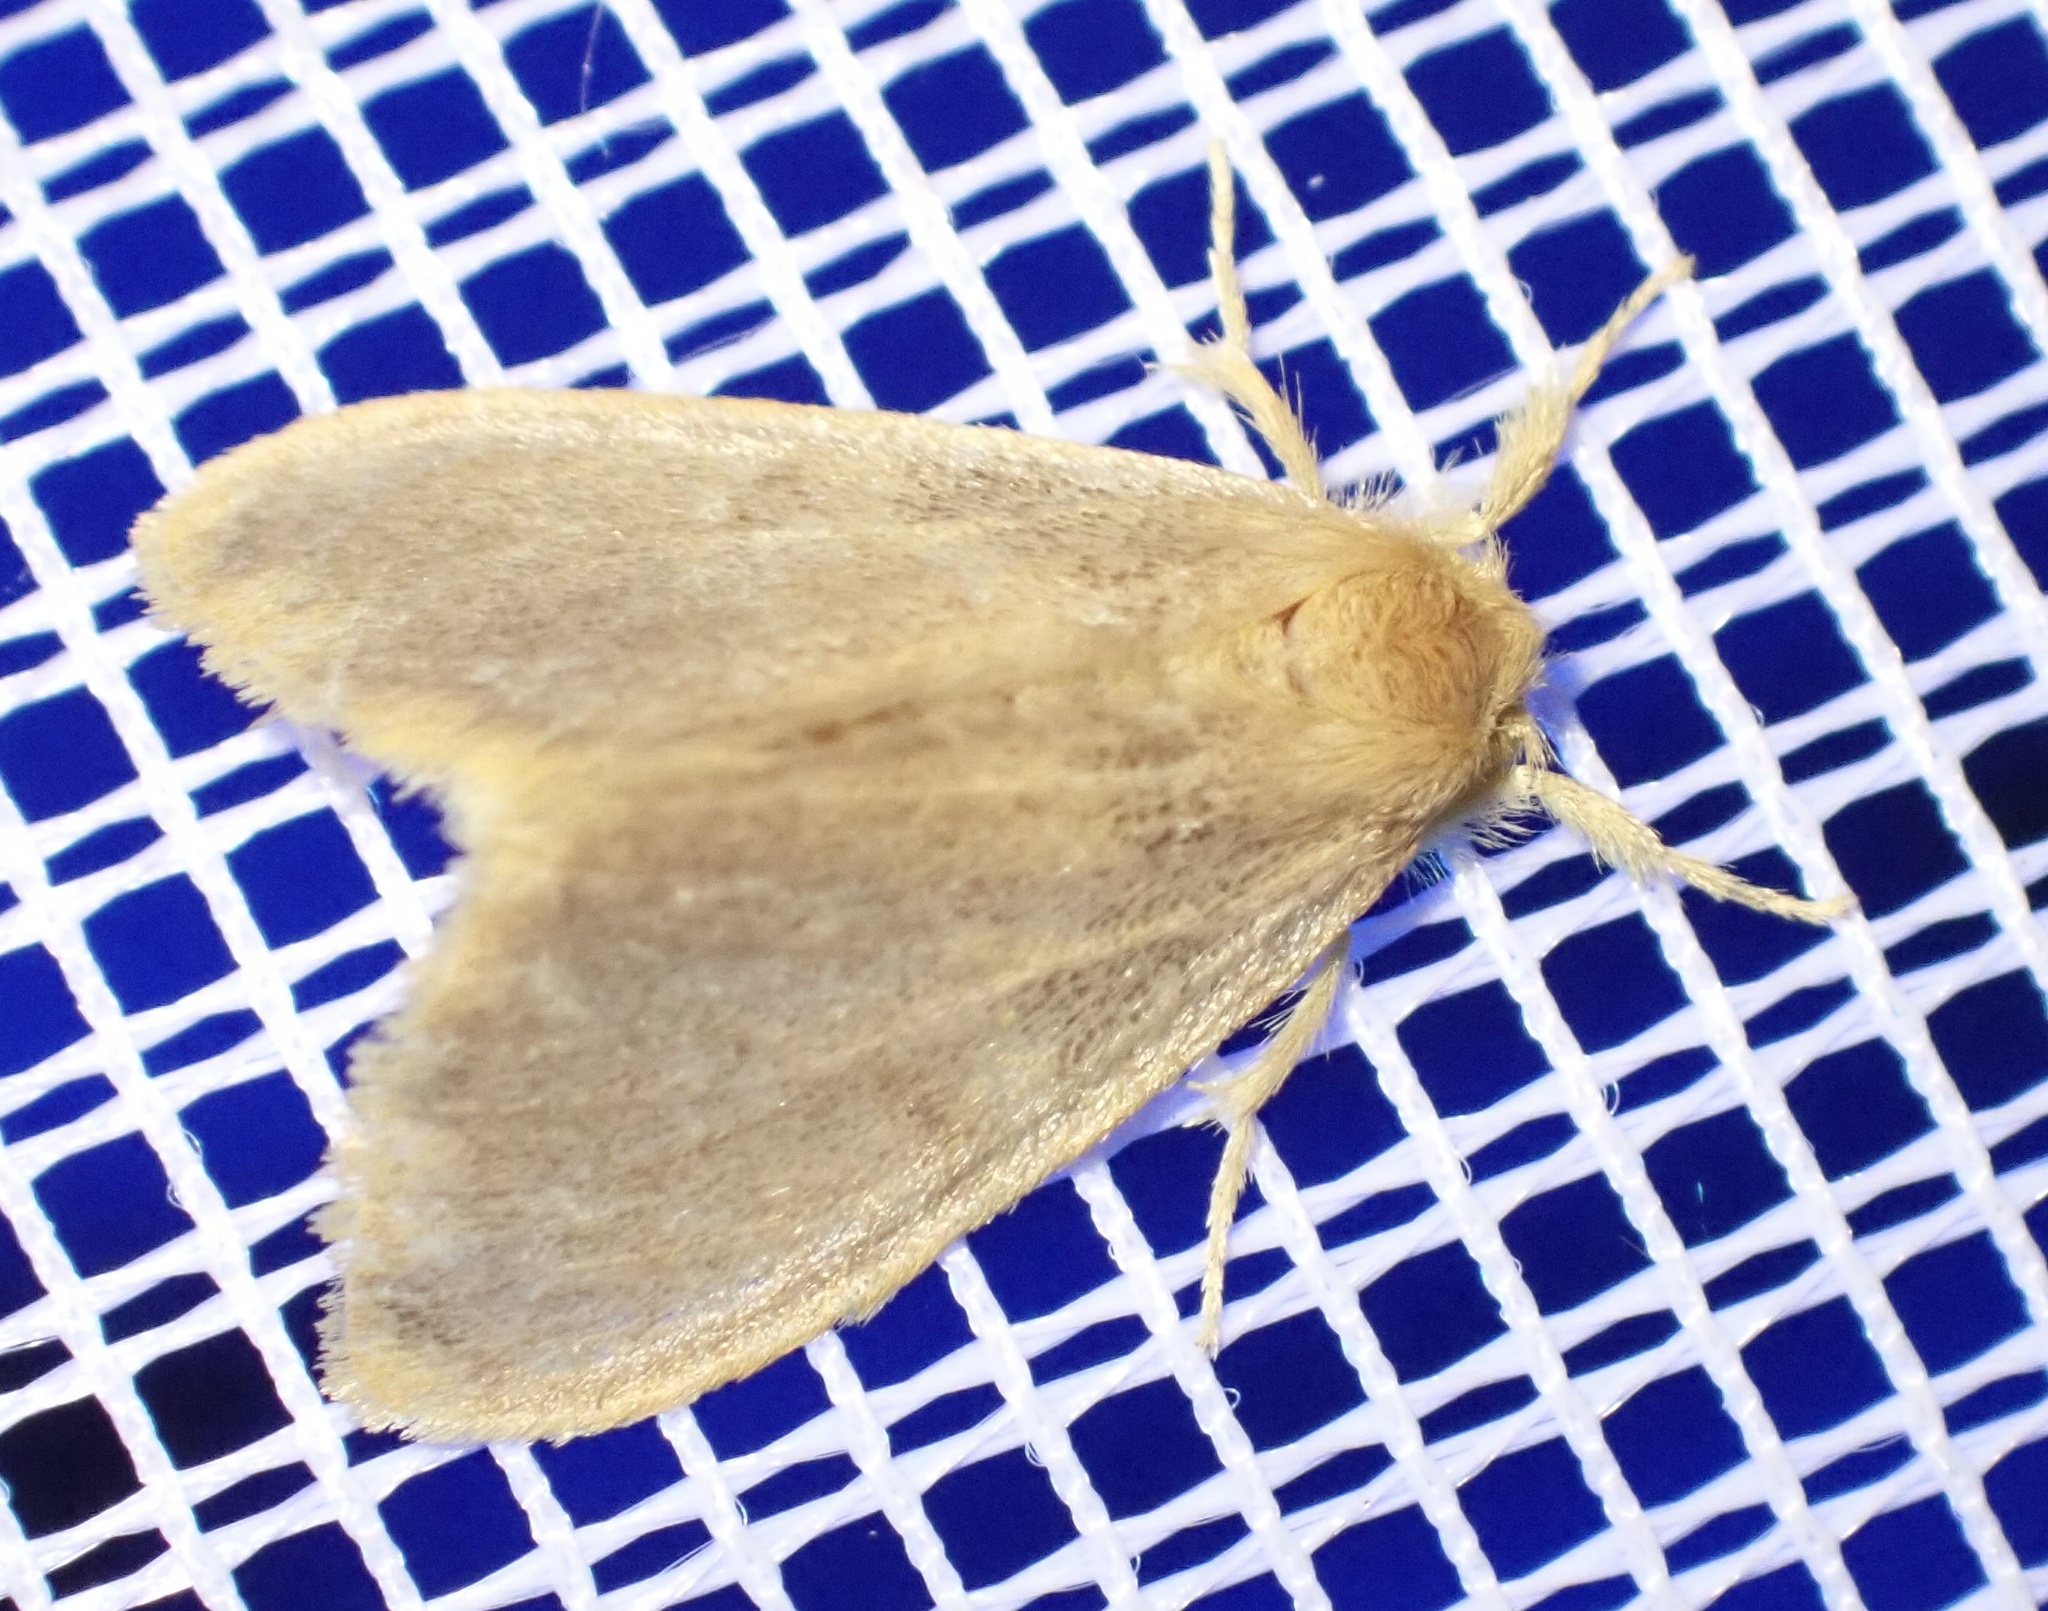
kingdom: Animalia
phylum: Arthropoda
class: Insecta
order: Lepidoptera
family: Erebidae
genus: Euproctis
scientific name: Euproctis fimbriata
